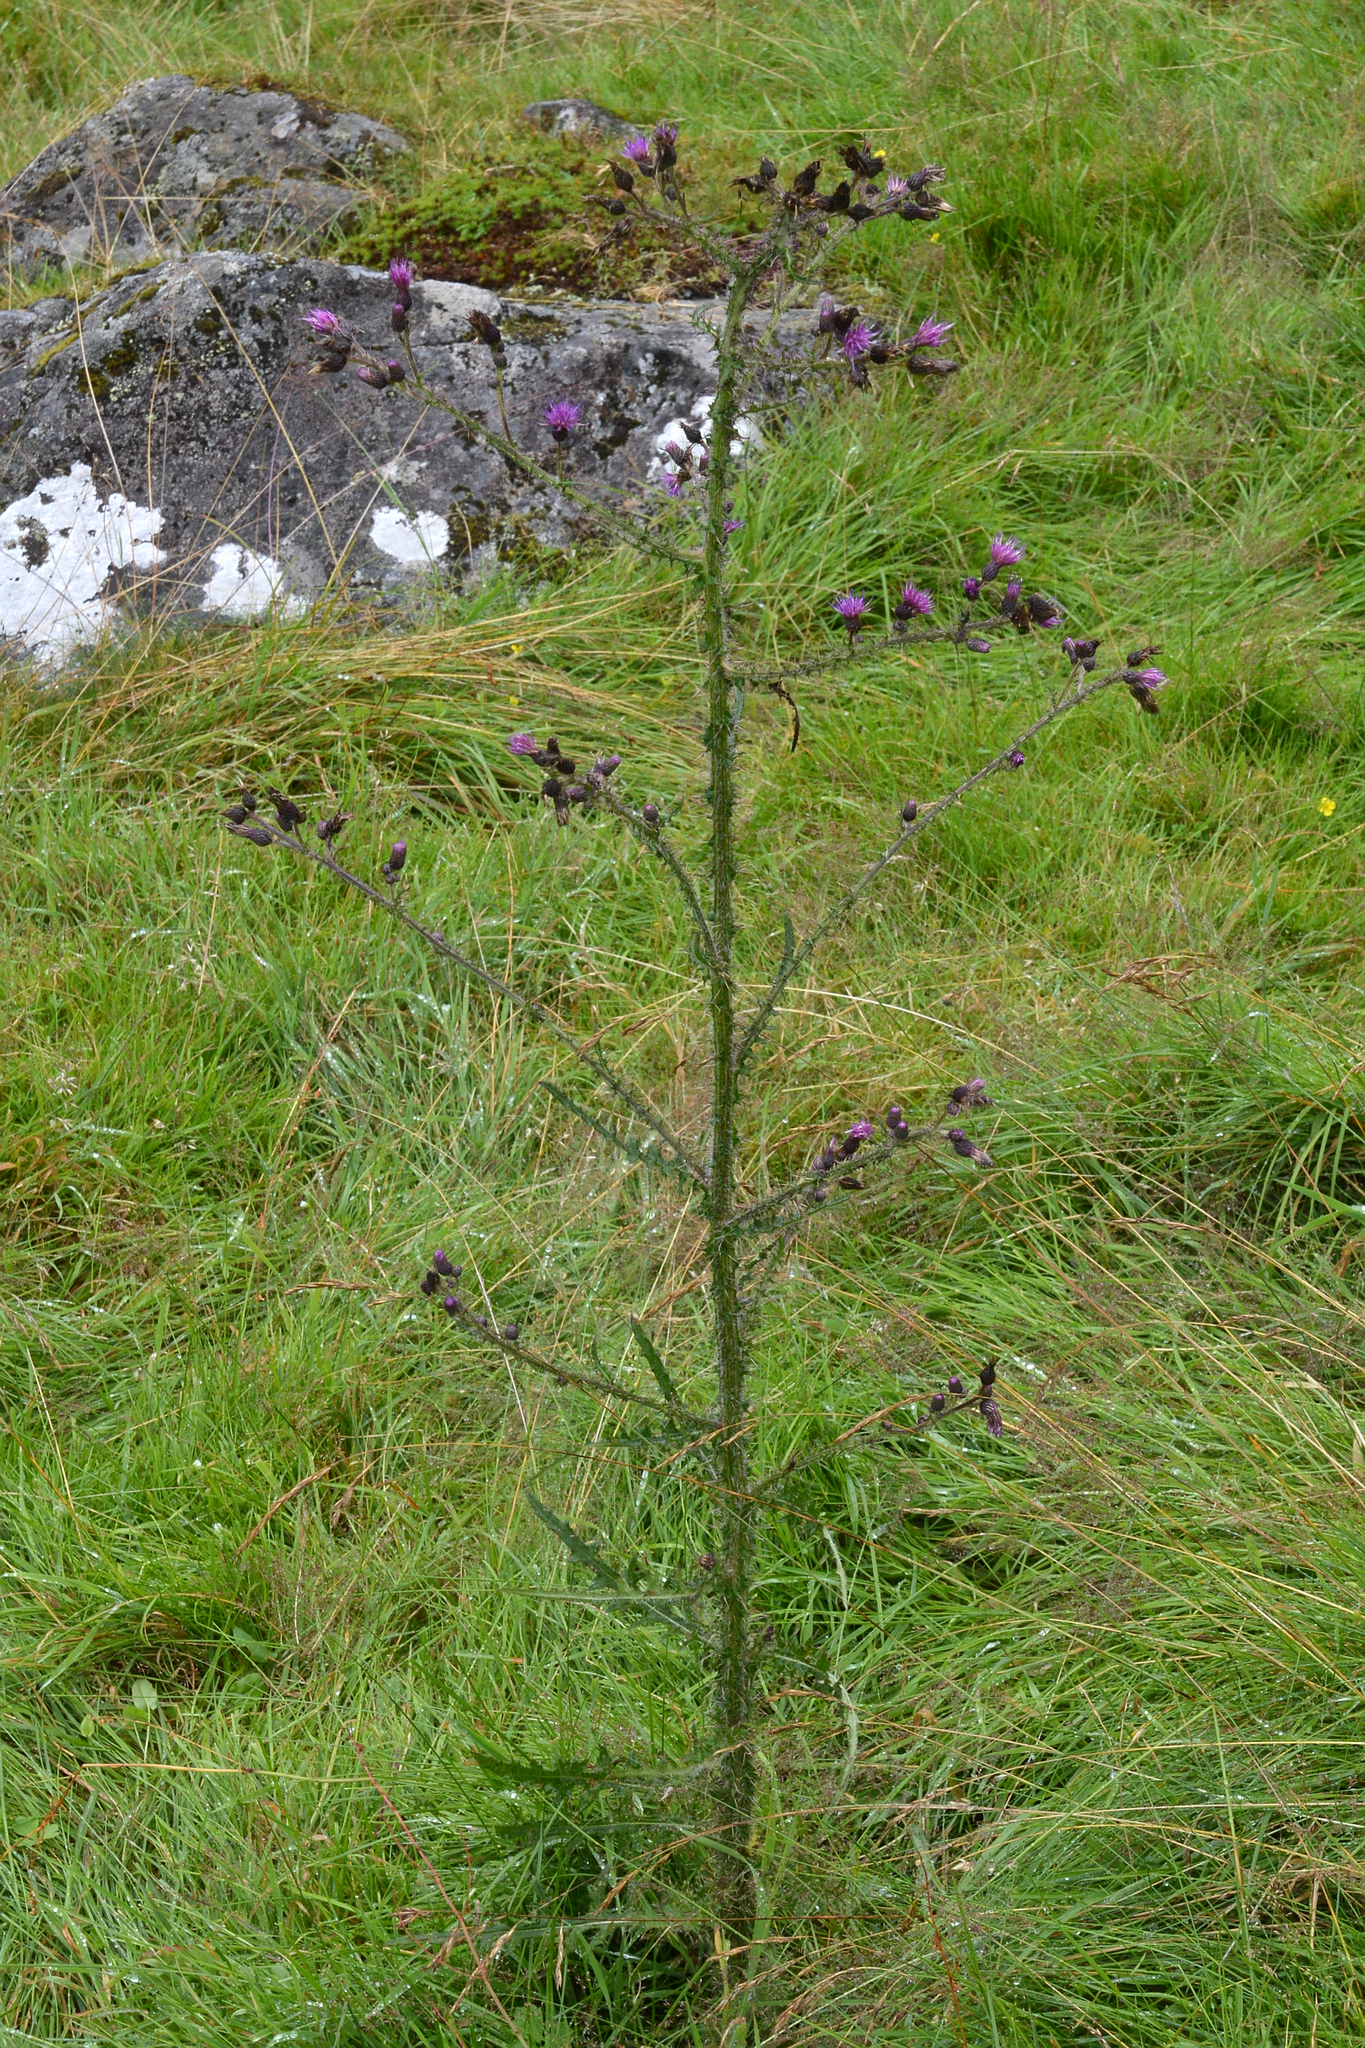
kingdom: Plantae
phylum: Tracheophyta
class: Magnoliopsida
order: Asterales
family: Asteraceae
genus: Cirsium
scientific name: Cirsium palustre
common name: Marsh thistle
